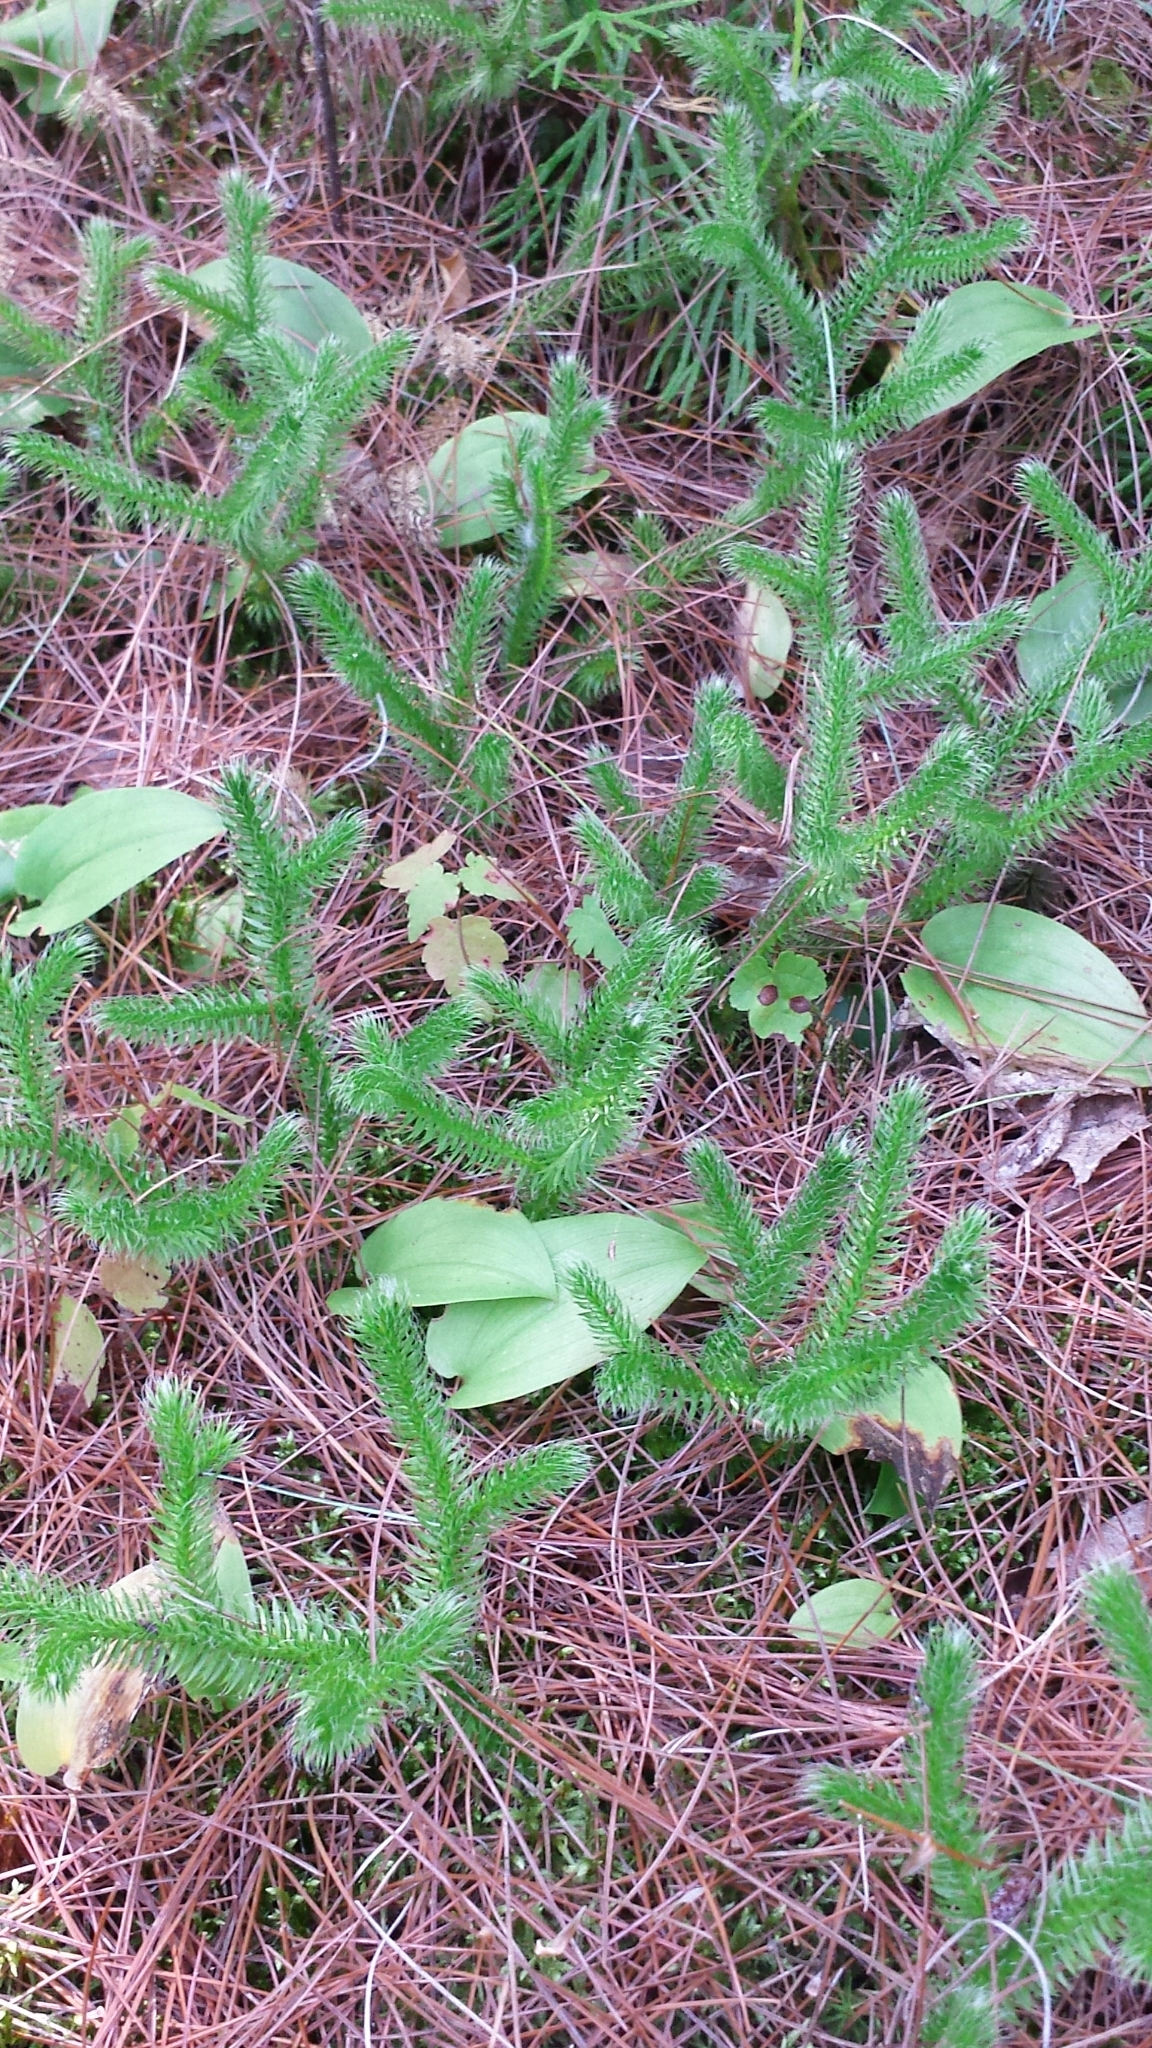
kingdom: Plantae
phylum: Tracheophyta
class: Lycopodiopsida
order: Lycopodiales
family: Lycopodiaceae
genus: Lycopodium
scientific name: Lycopodium clavatum
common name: Stag's-horn clubmoss
